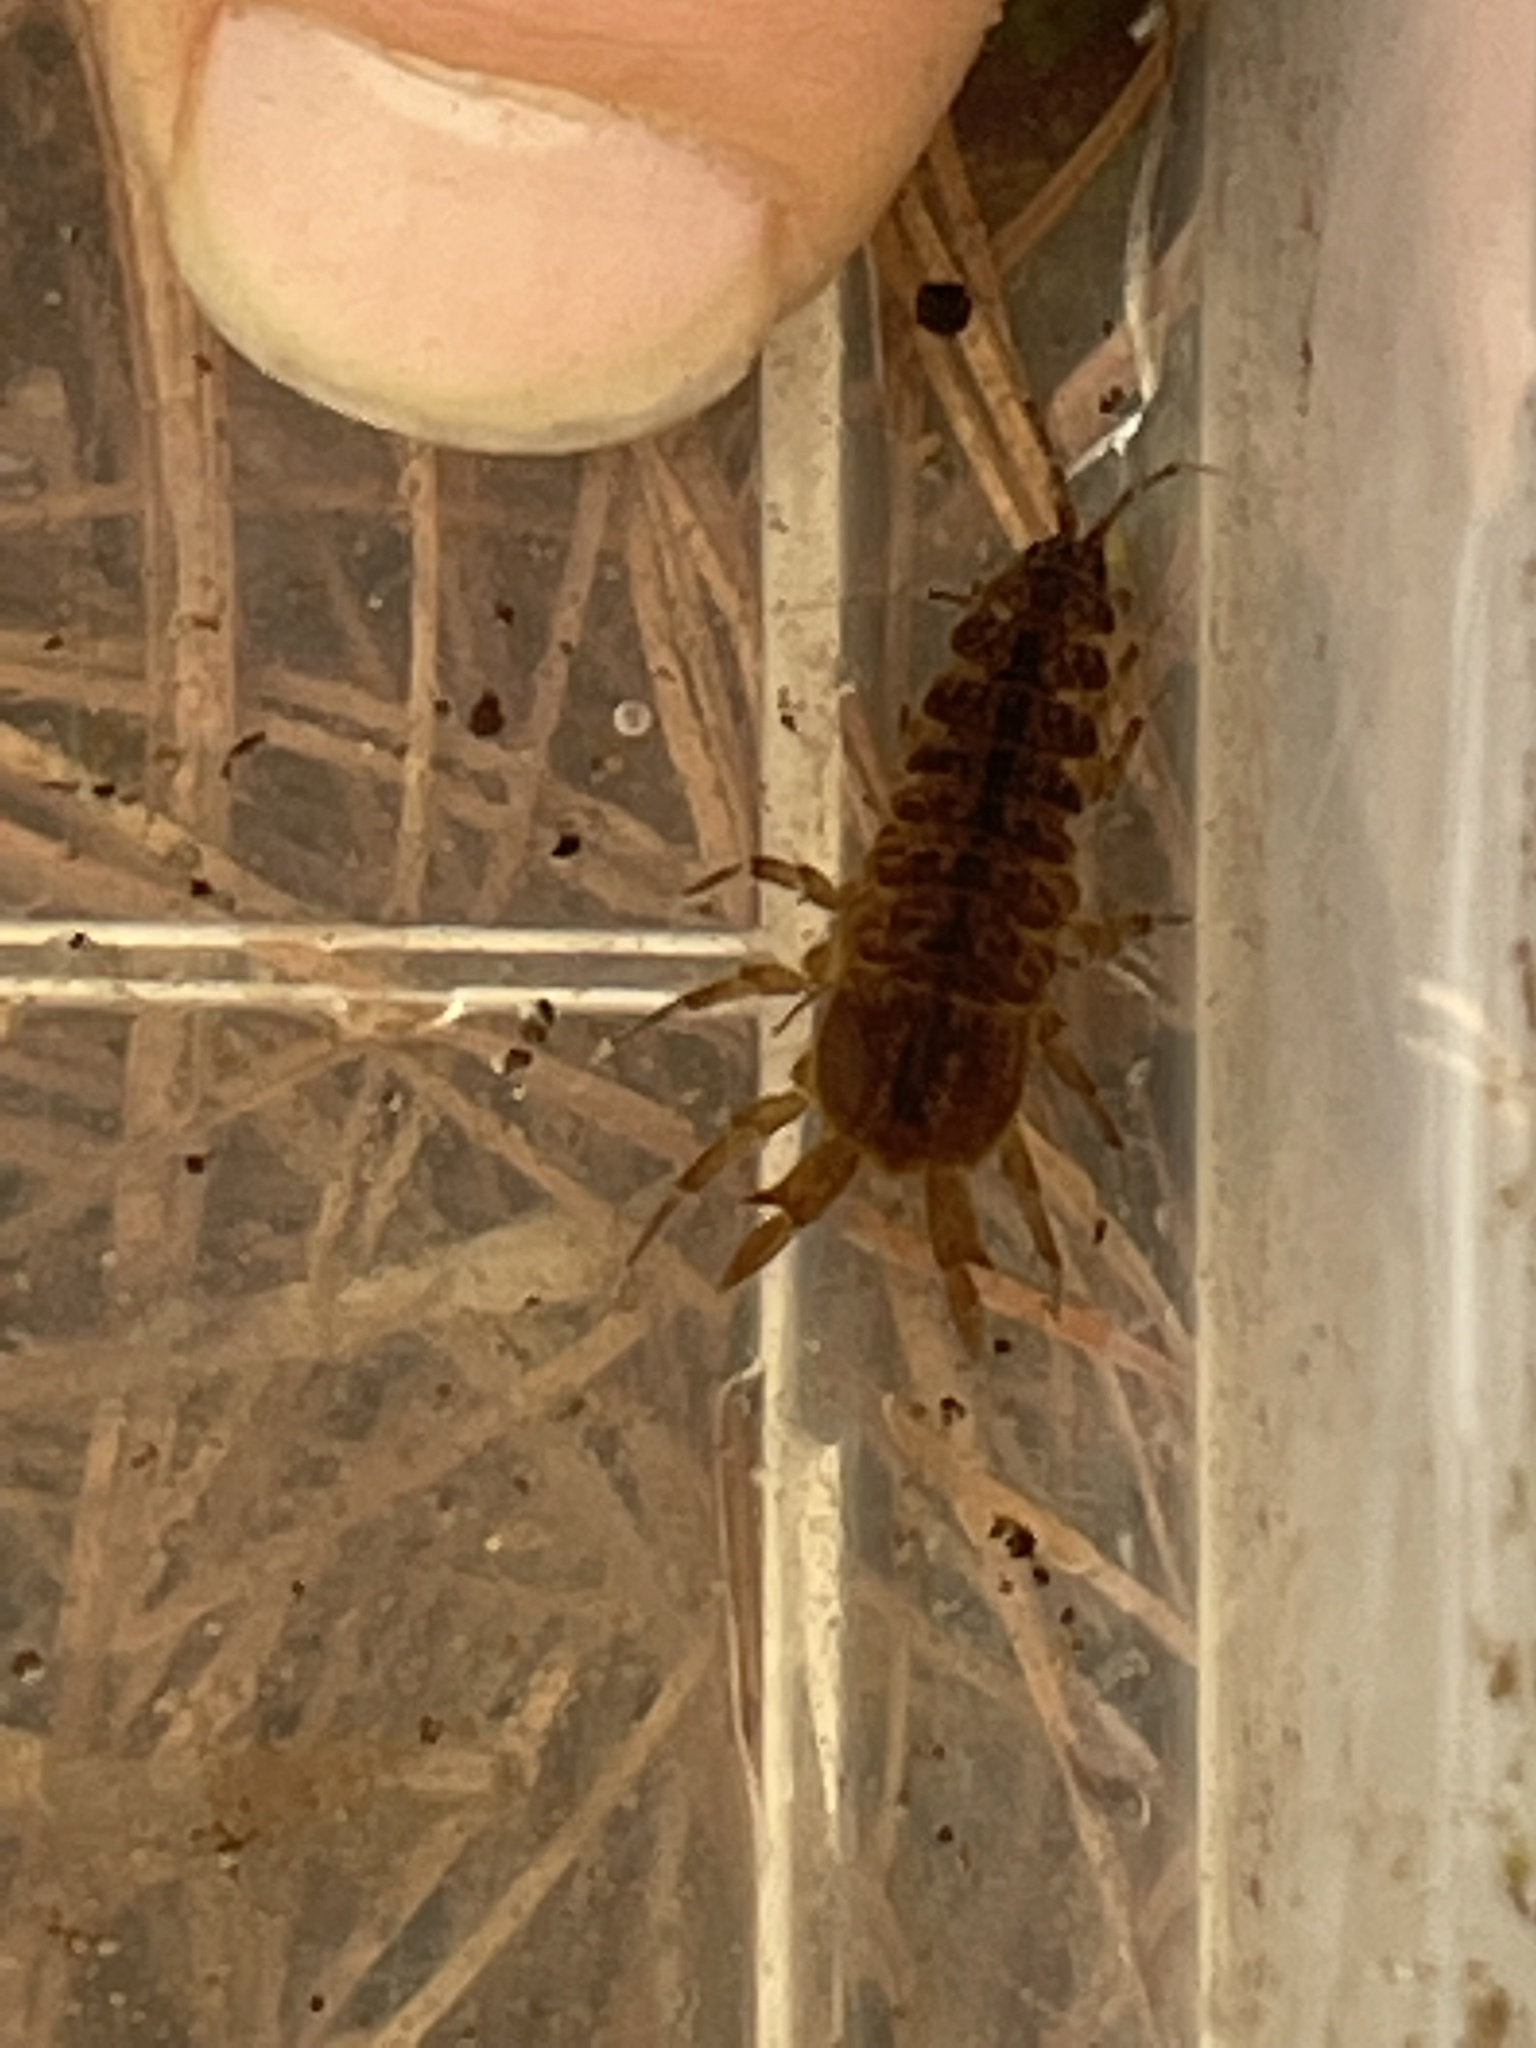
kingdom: Animalia
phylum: Arthropoda
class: Malacostraca
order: Isopoda
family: Asellidae
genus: Caecidotea
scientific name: Caecidotea
